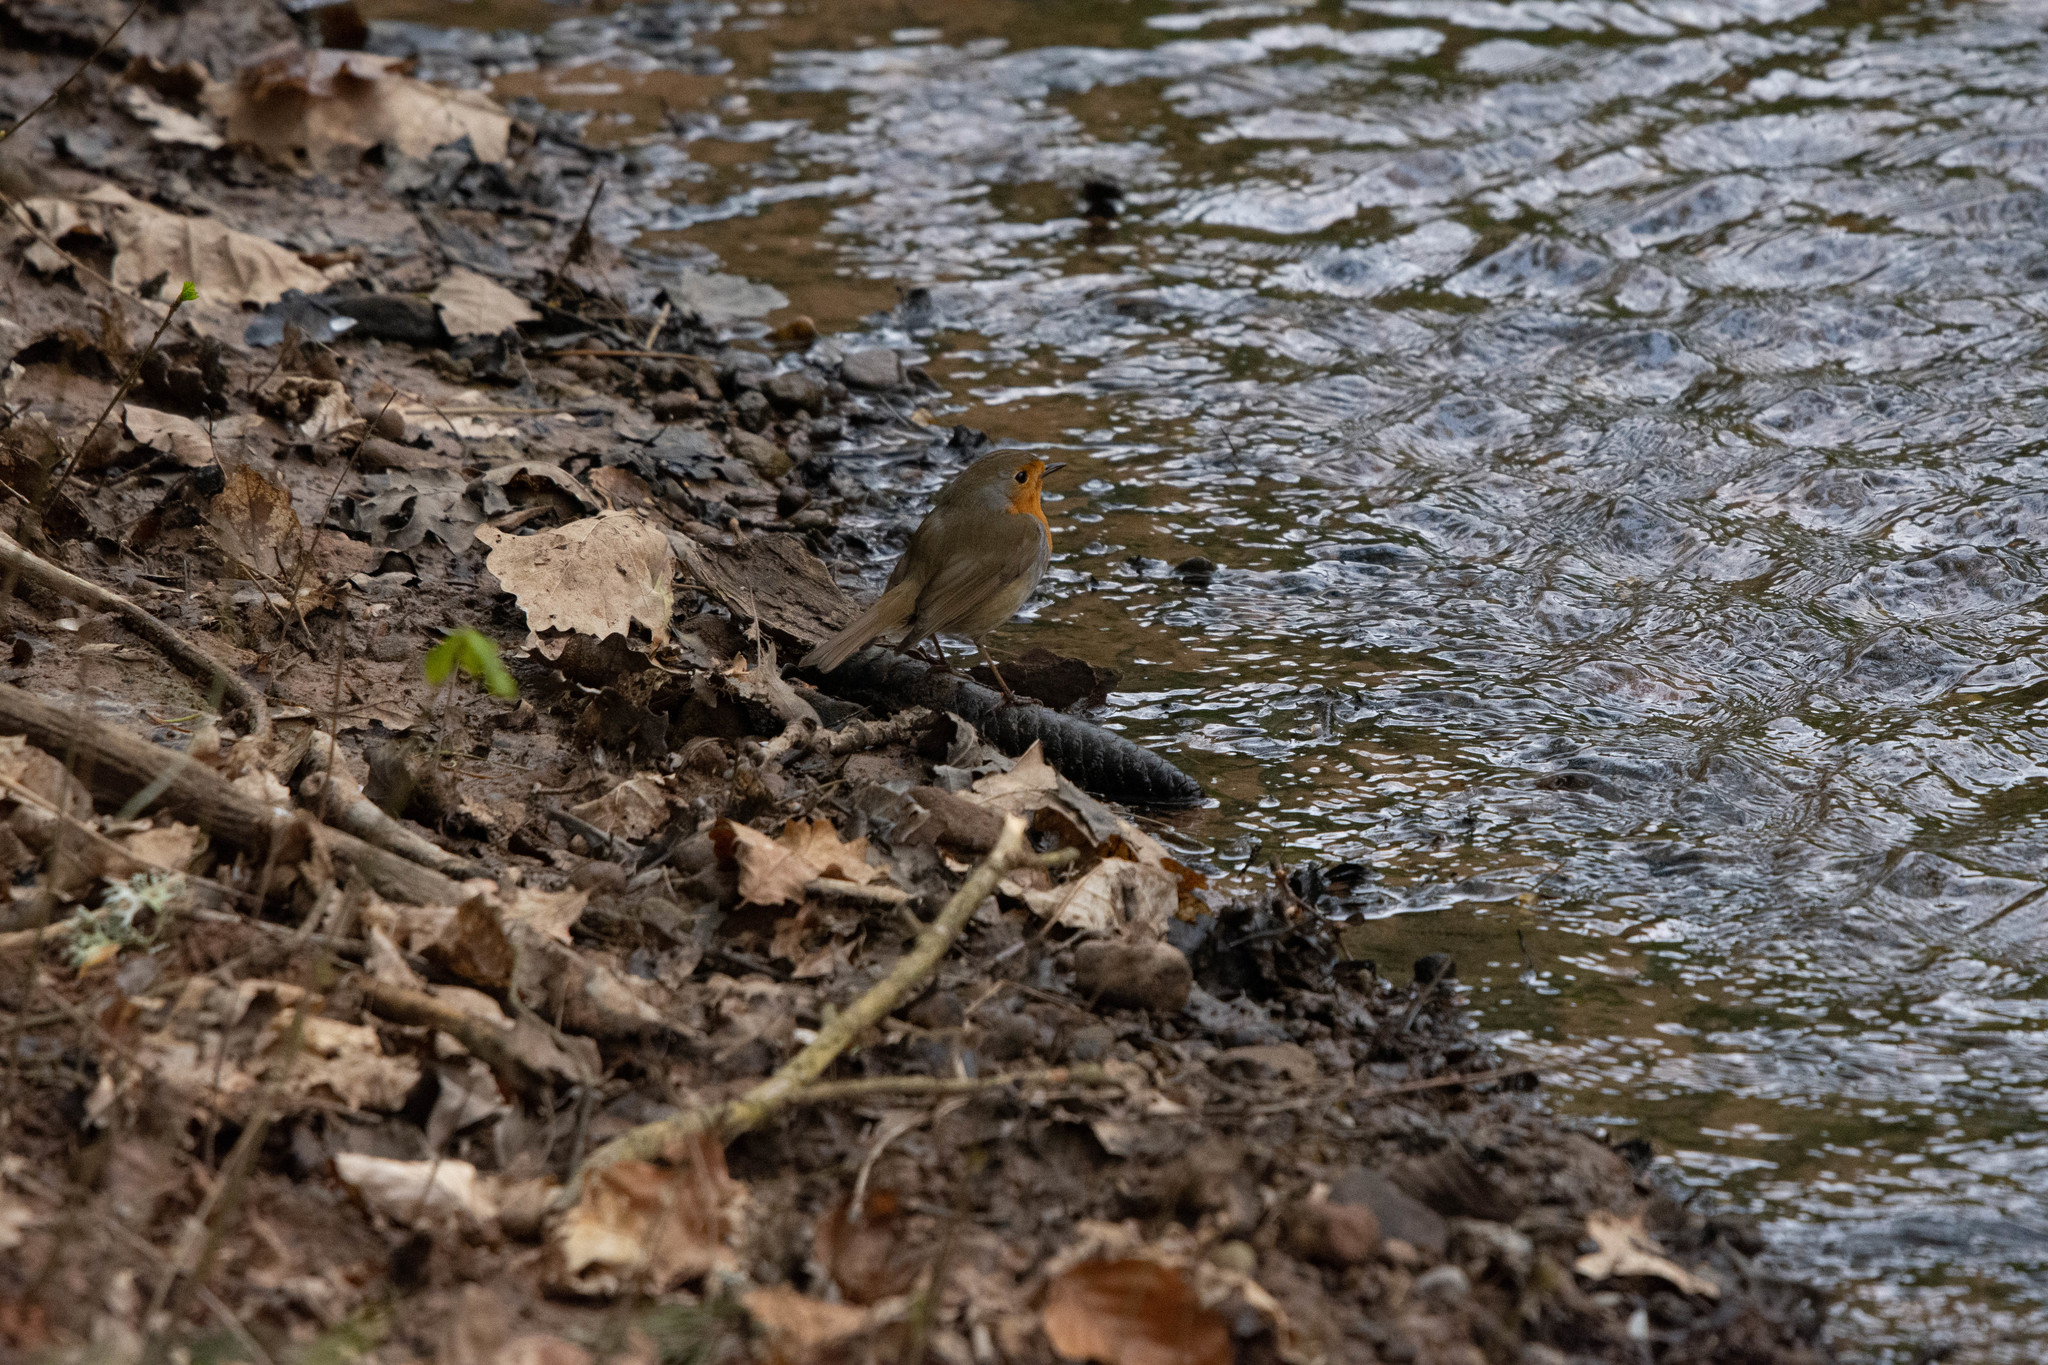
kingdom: Animalia
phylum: Chordata
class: Aves
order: Passeriformes
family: Muscicapidae
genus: Erithacus
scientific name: Erithacus rubecula
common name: European robin
